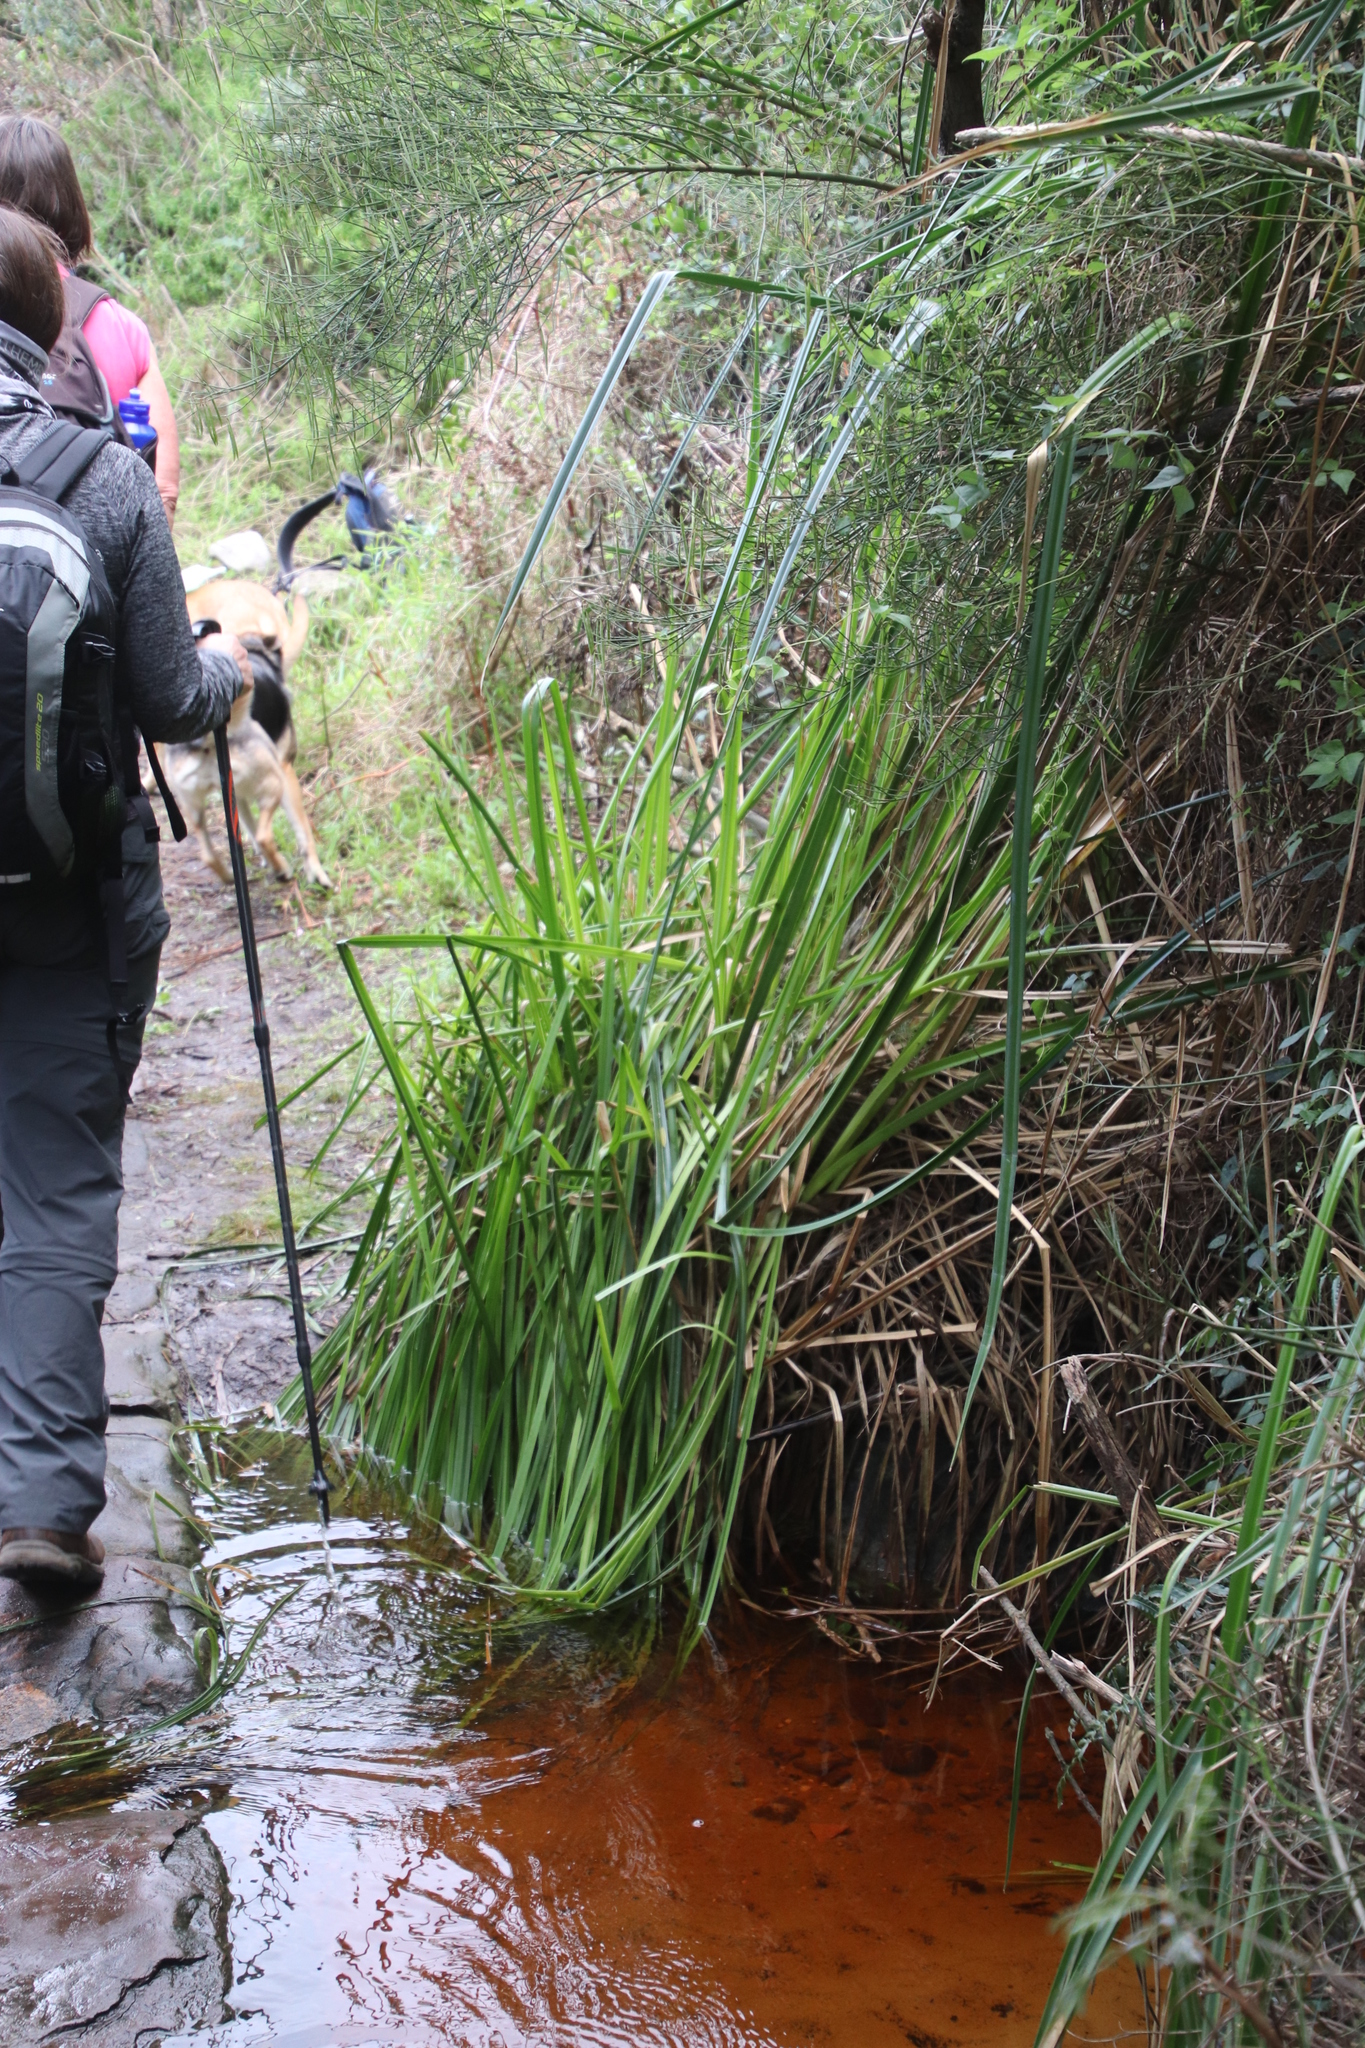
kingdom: Plantae
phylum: Tracheophyta
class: Liliopsida
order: Poales
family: Cyperaceae
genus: Carpha
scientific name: Carpha glomerata
